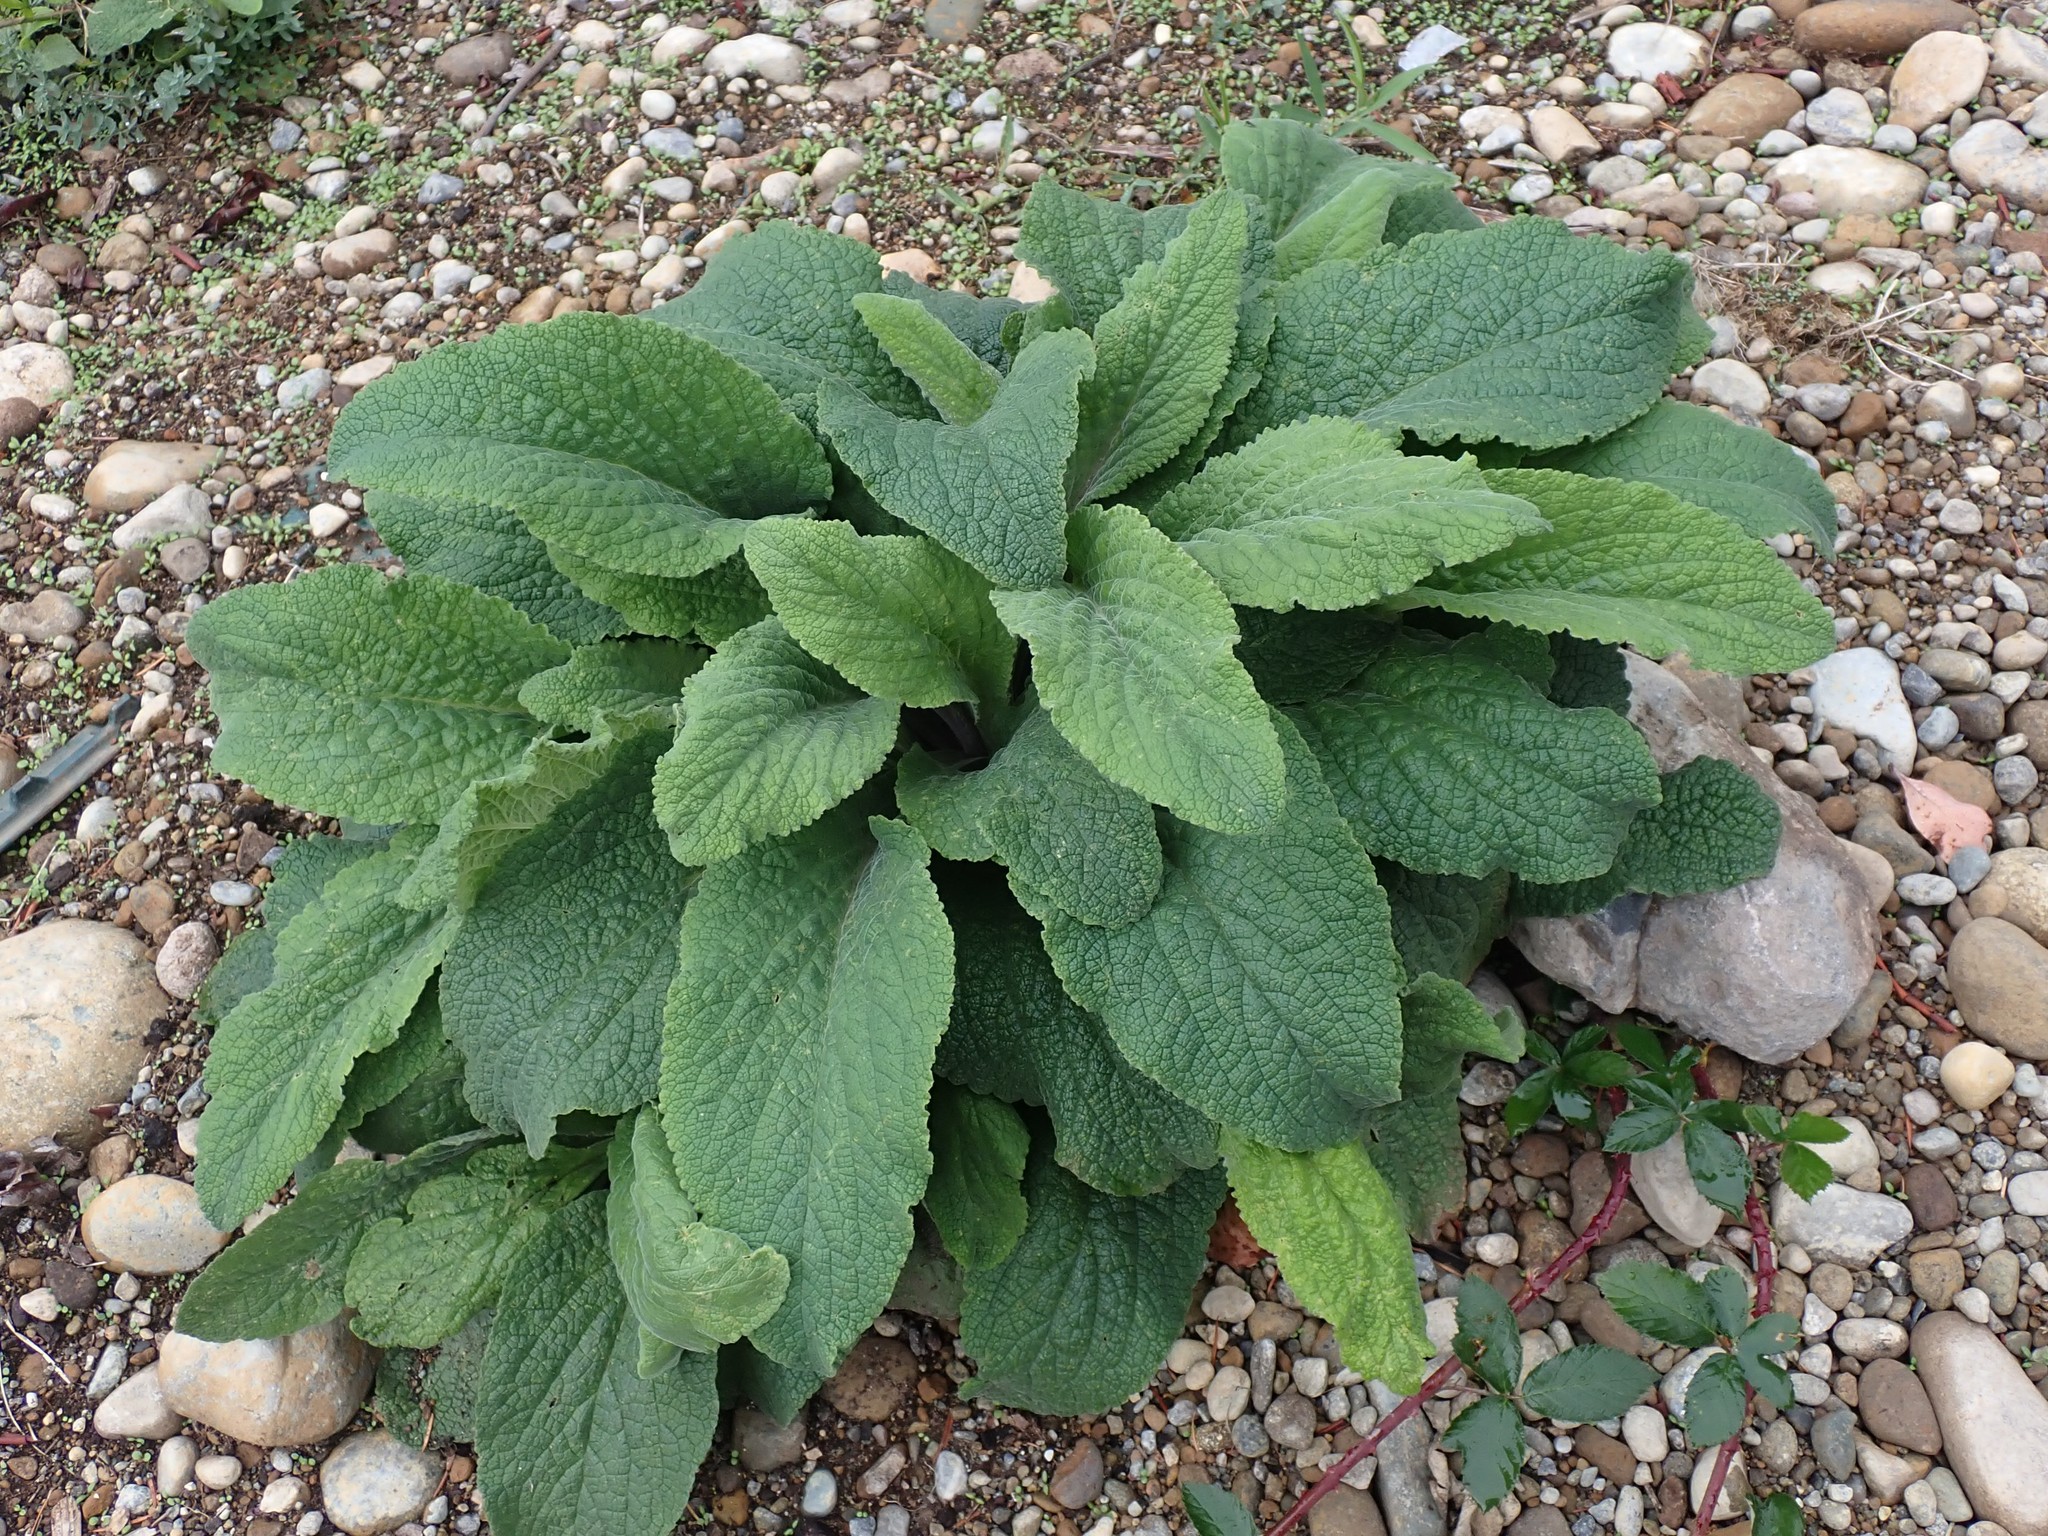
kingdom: Plantae
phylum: Tracheophyta
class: Magnoliopsida
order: Lamiales
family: Plantaginaceae
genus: Digitalis
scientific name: Digitalis purpurea
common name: Foxglove
